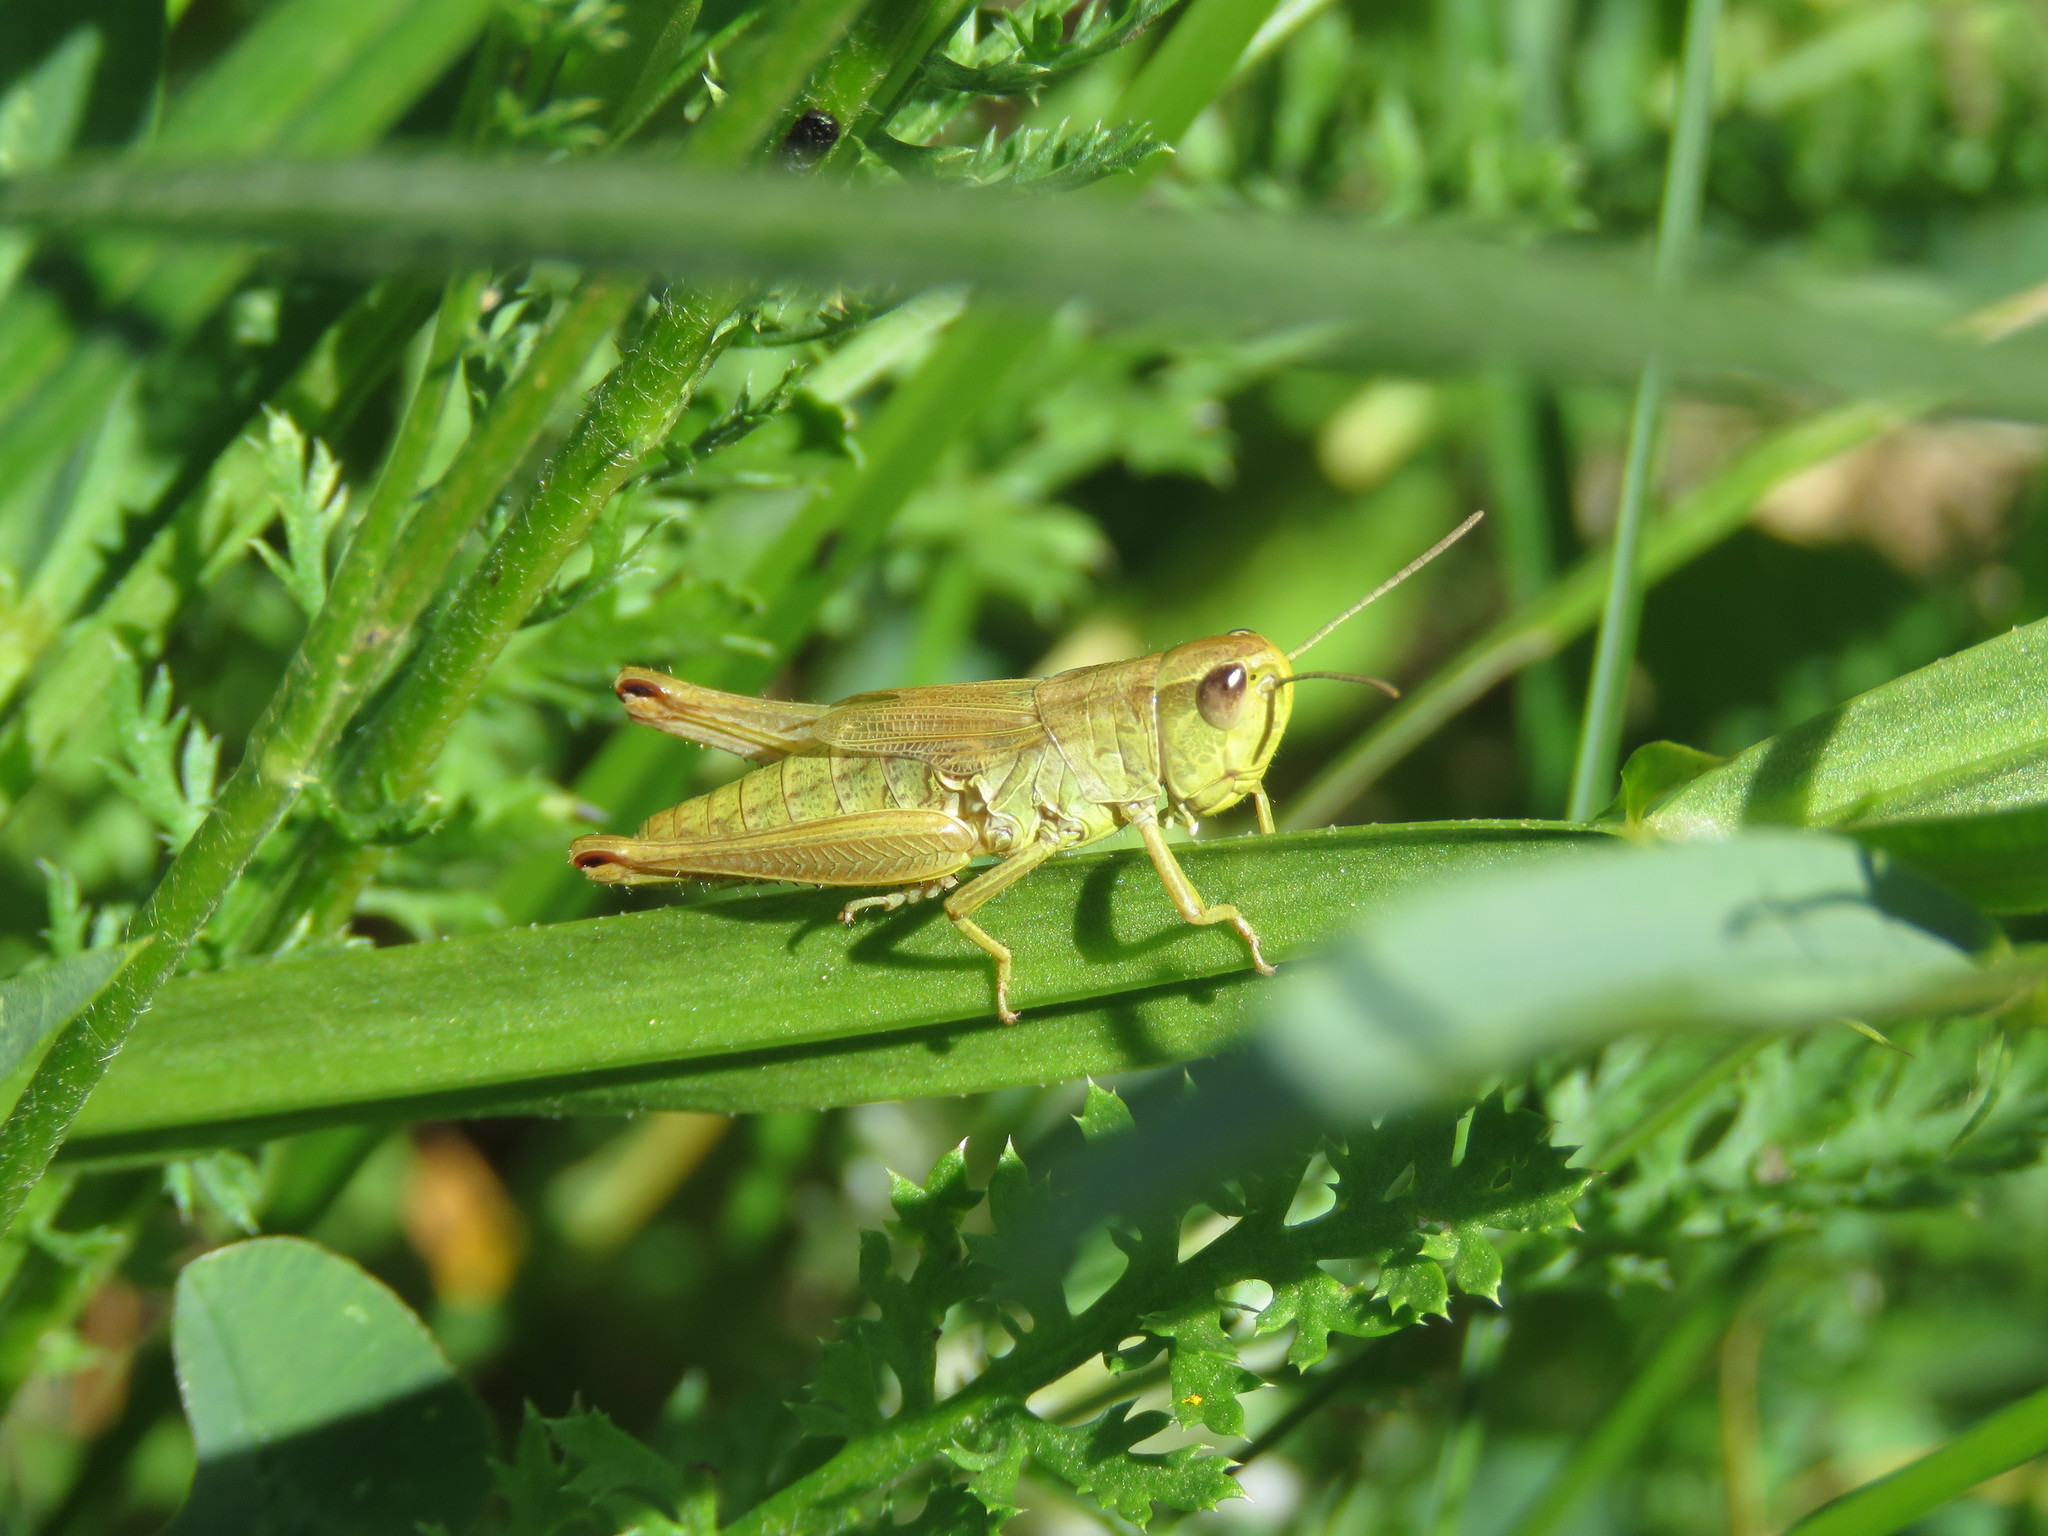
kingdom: Animalia
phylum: Arthropoda
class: Insecta
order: Orthoptera
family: Acrididae
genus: Pseudochorthippus
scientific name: Pseudochorthippus parallelus
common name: Meadow grasshopper
